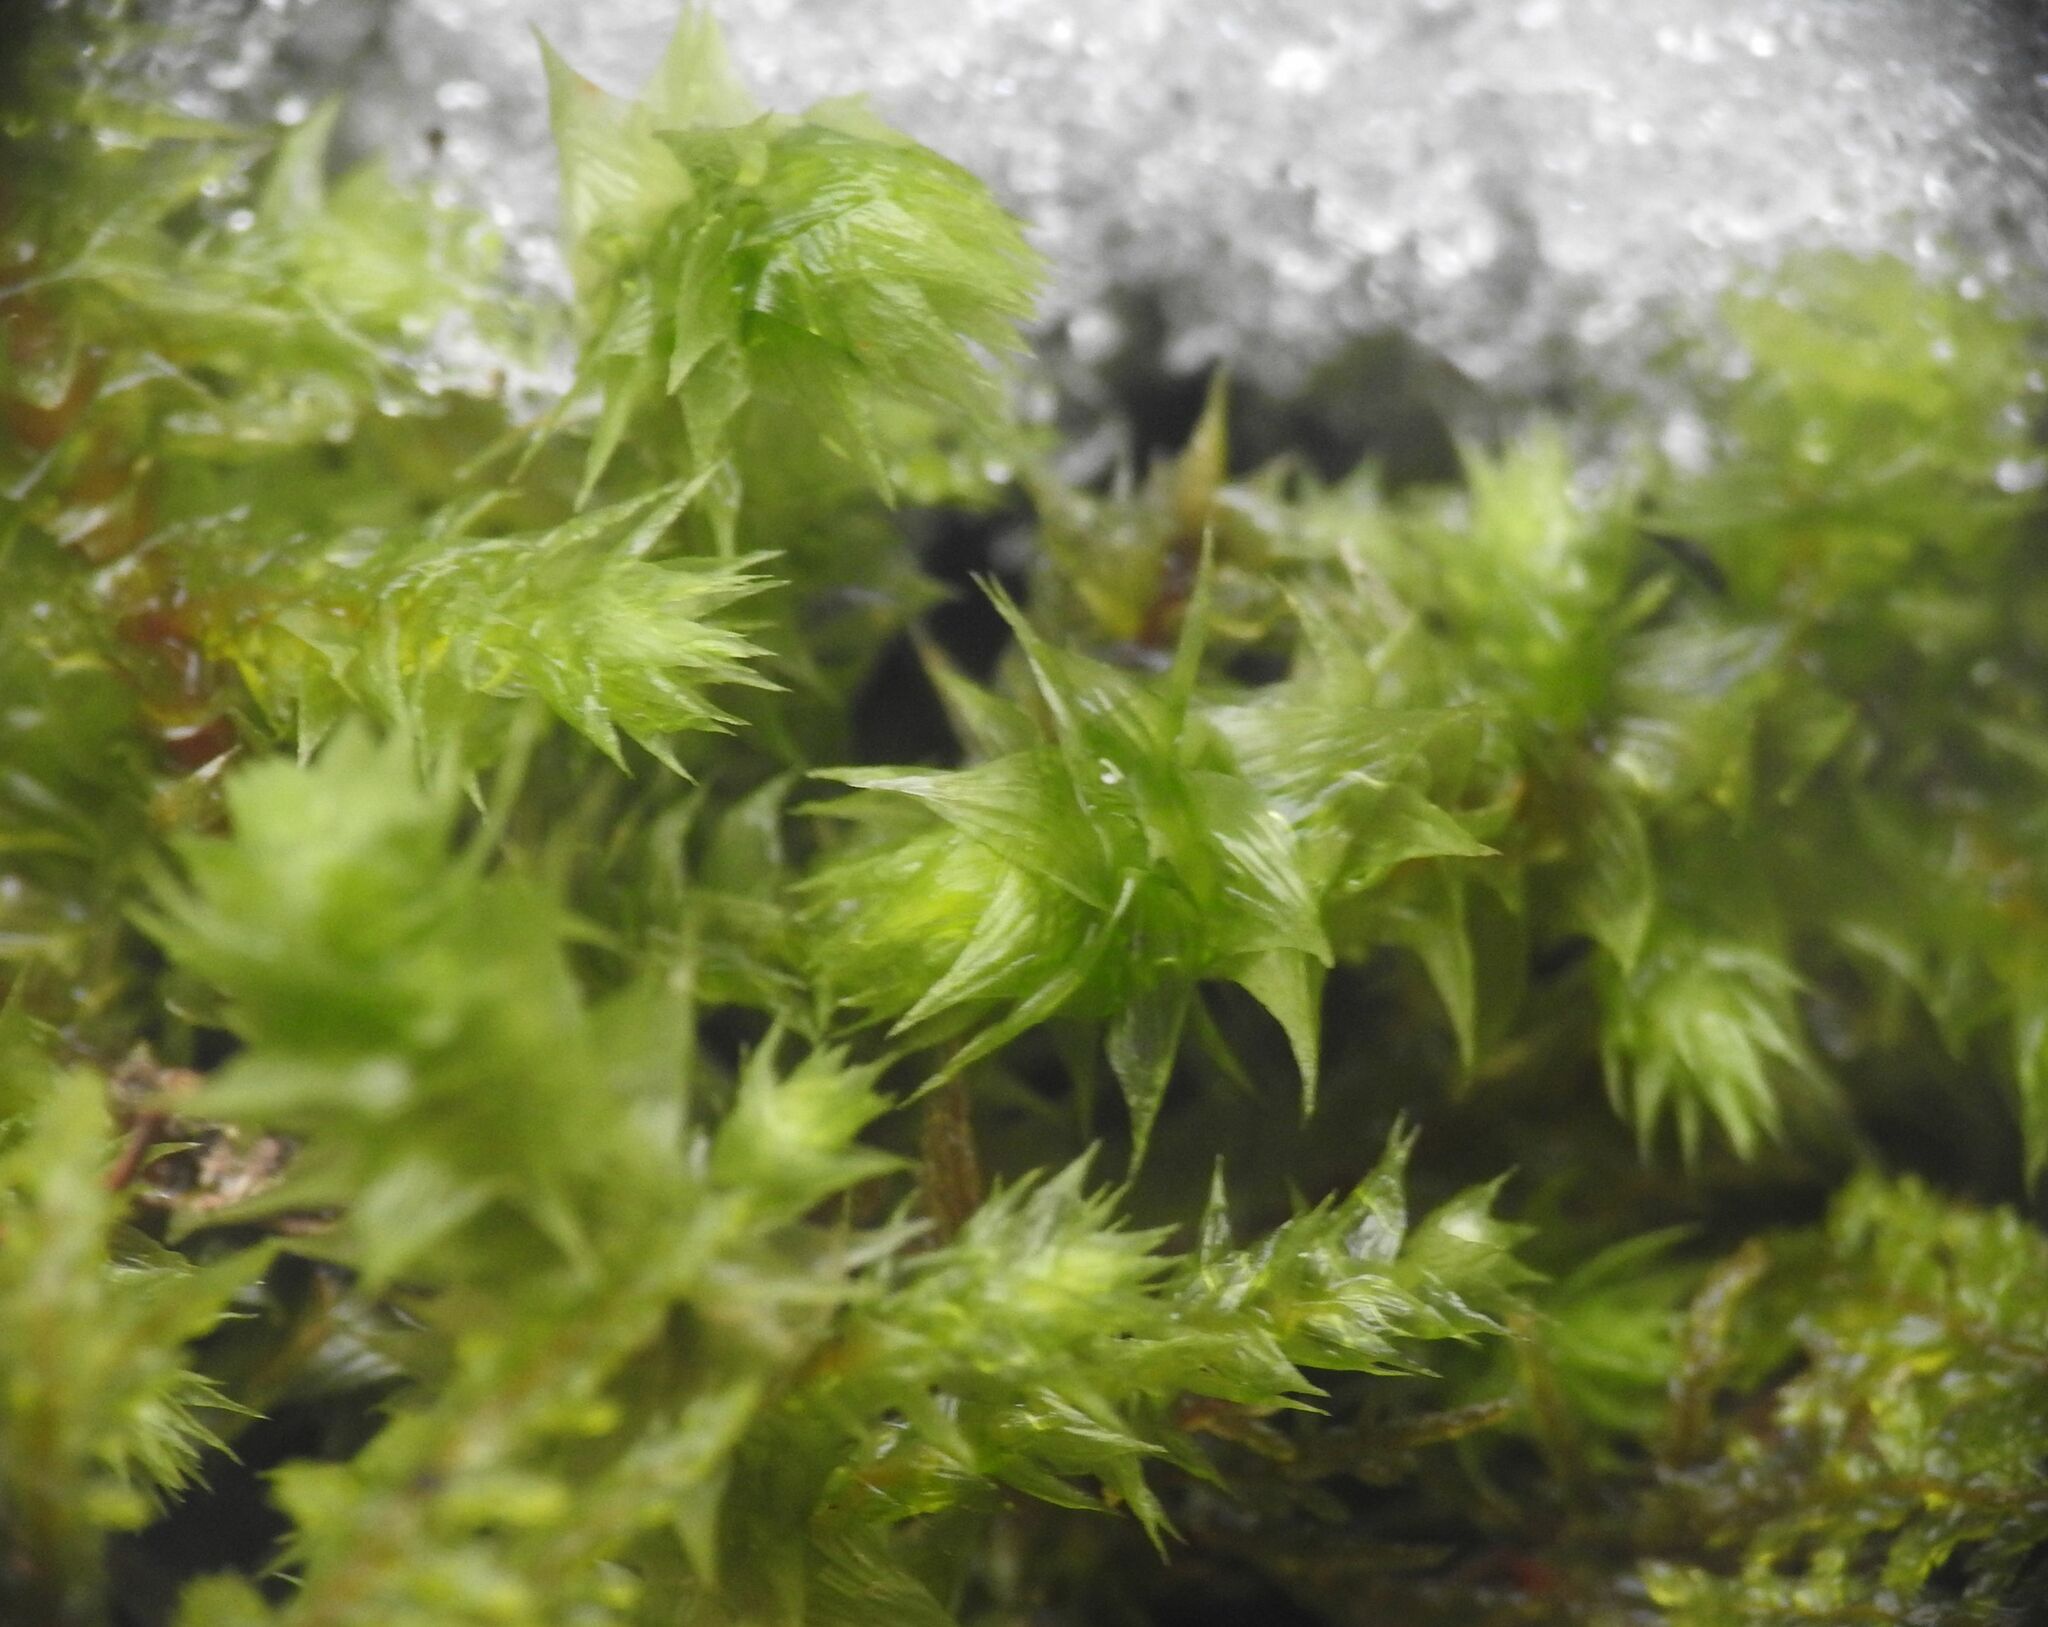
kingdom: Plantae
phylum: Bryophyta
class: Bryopsida
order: Hypnales
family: Hylocomiaceae
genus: Hylocomiadelphus
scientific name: Hylocomiadelphus triquetrus
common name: Rough goose neck moss
